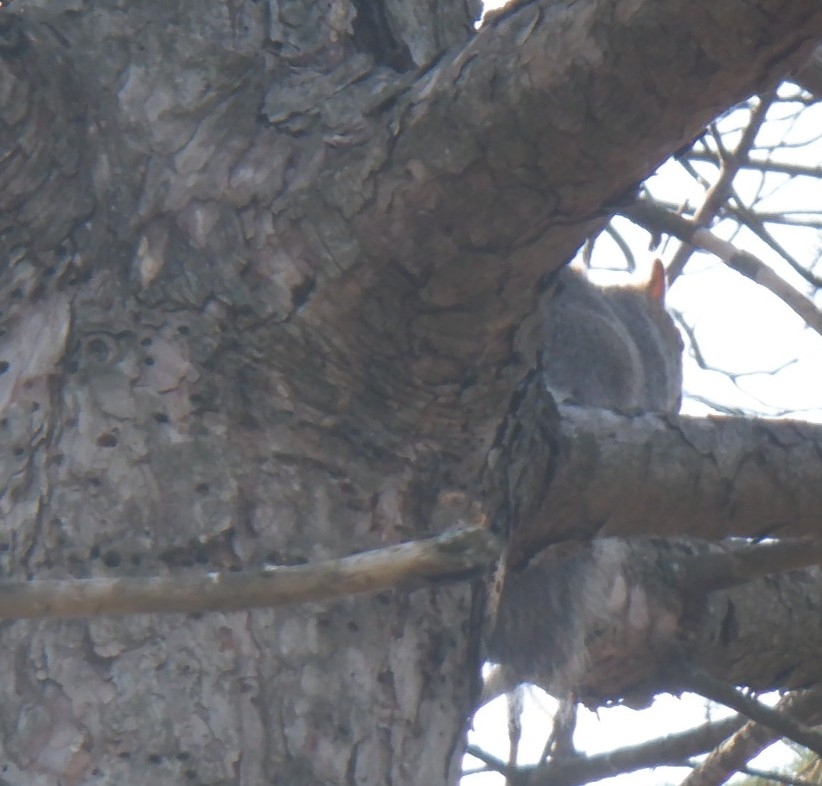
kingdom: Animalia
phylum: Chordata
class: Mammalia
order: Rodentia
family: Sciuridae
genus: Sciurus
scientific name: Sciurus carolinensis
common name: Eastern gray squirrel
